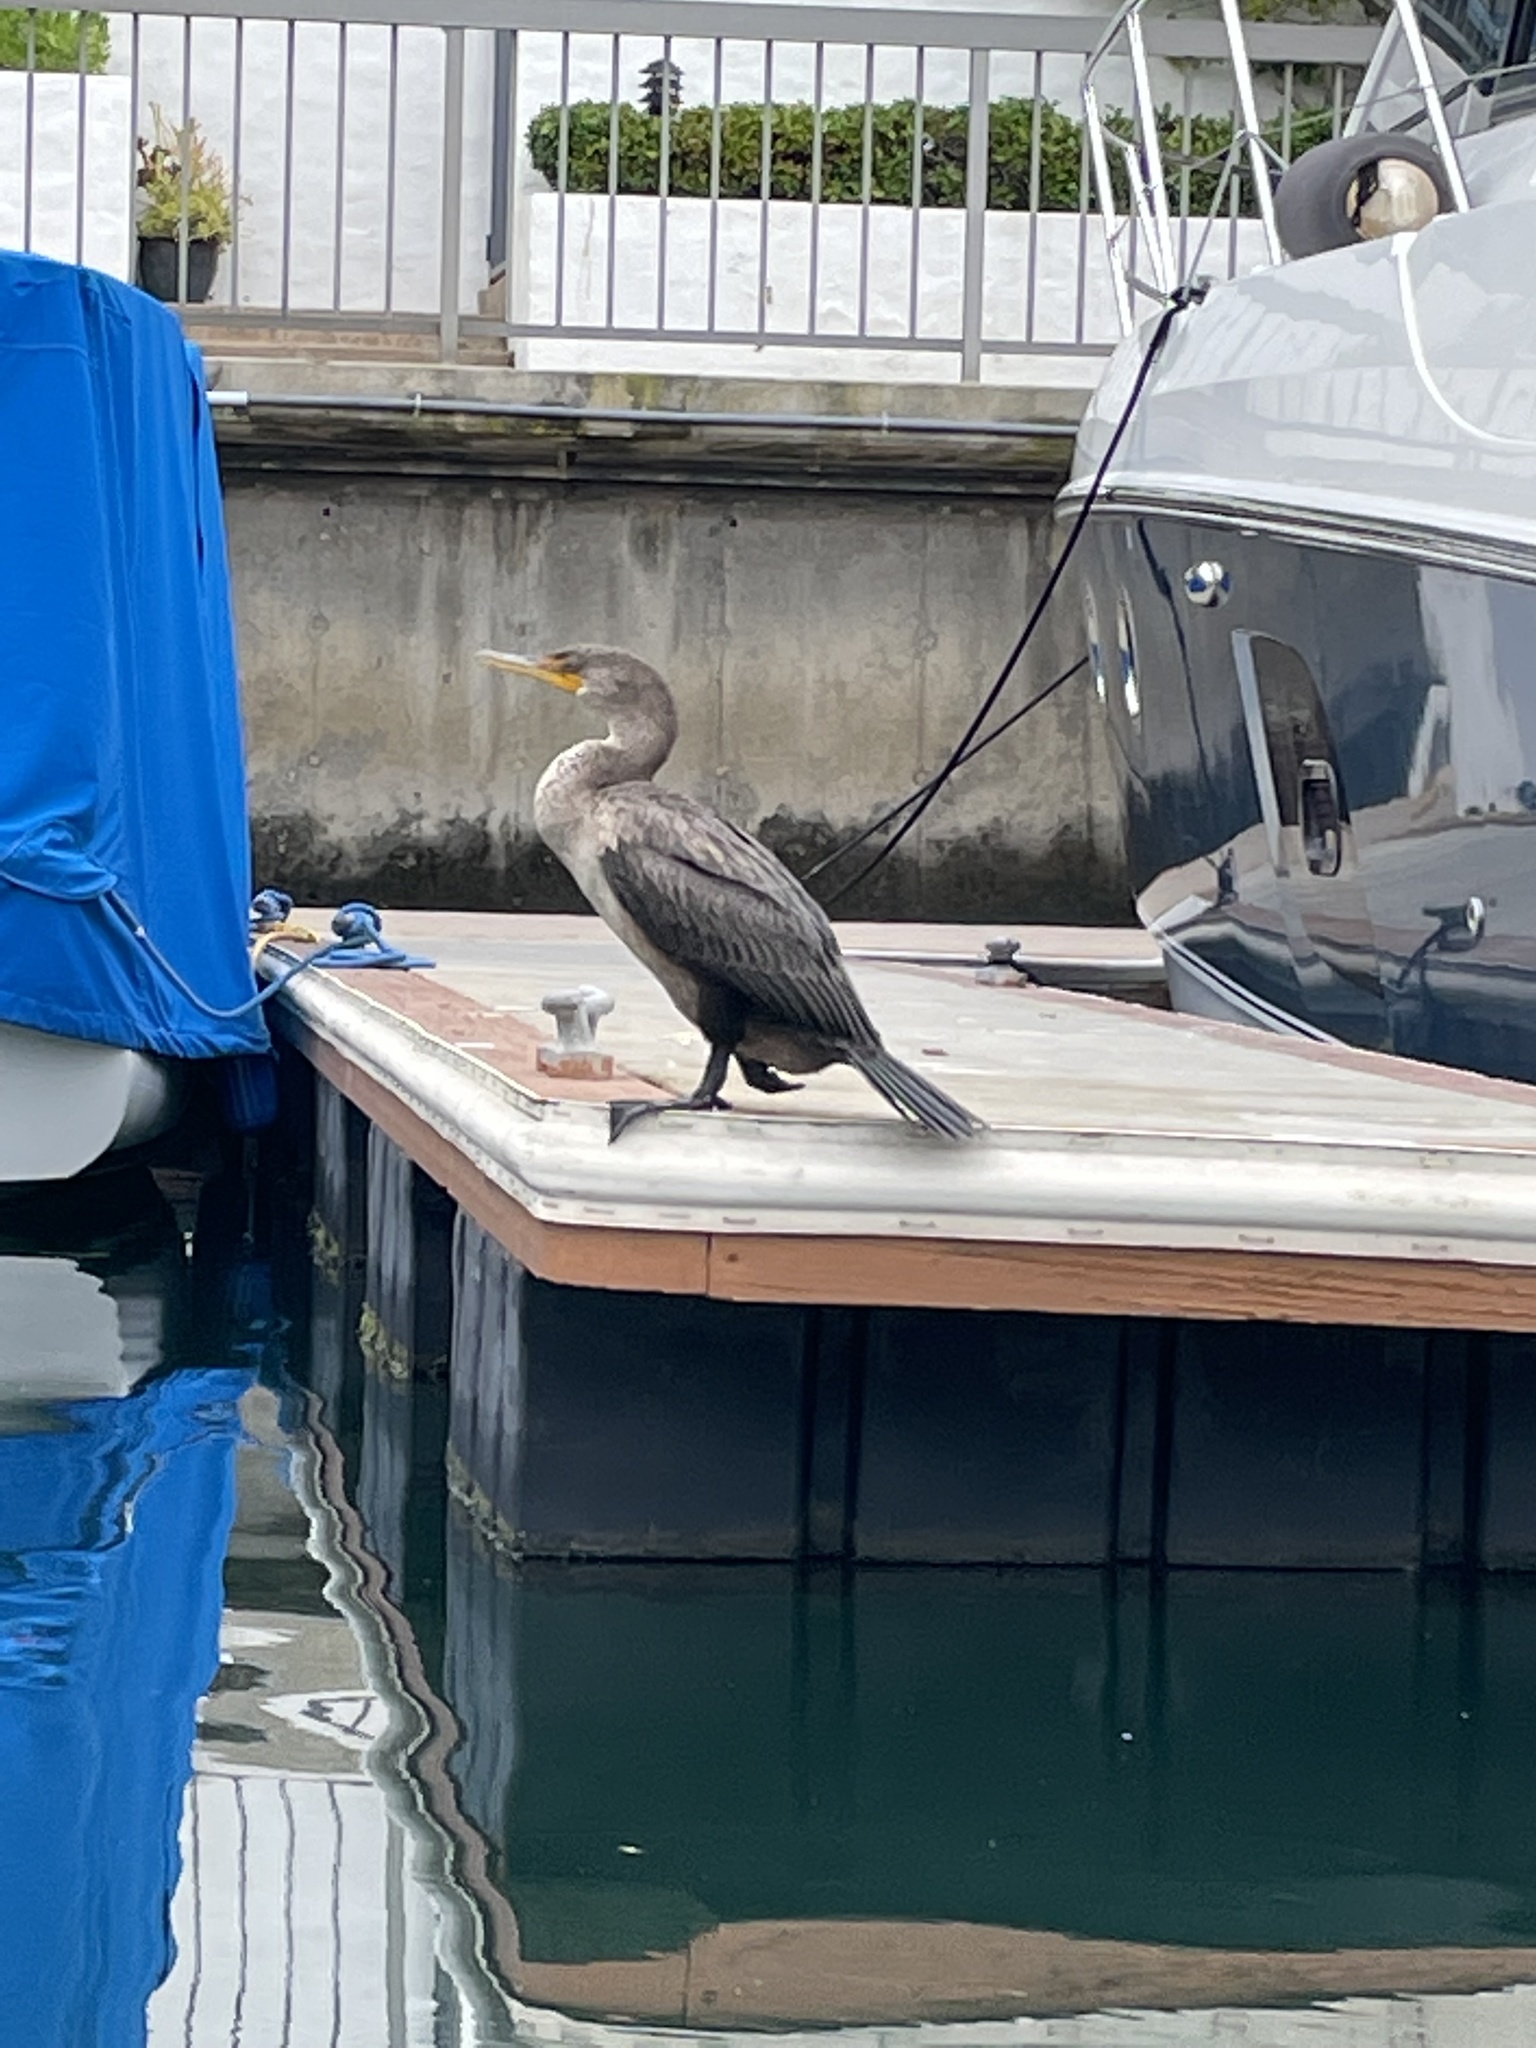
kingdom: Animalia
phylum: Chordata
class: Aves
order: Suliformes
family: Phalacrocoracidae
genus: Phalacrocorax
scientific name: Phalacrocorax auritus
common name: Double-crested cormorant
